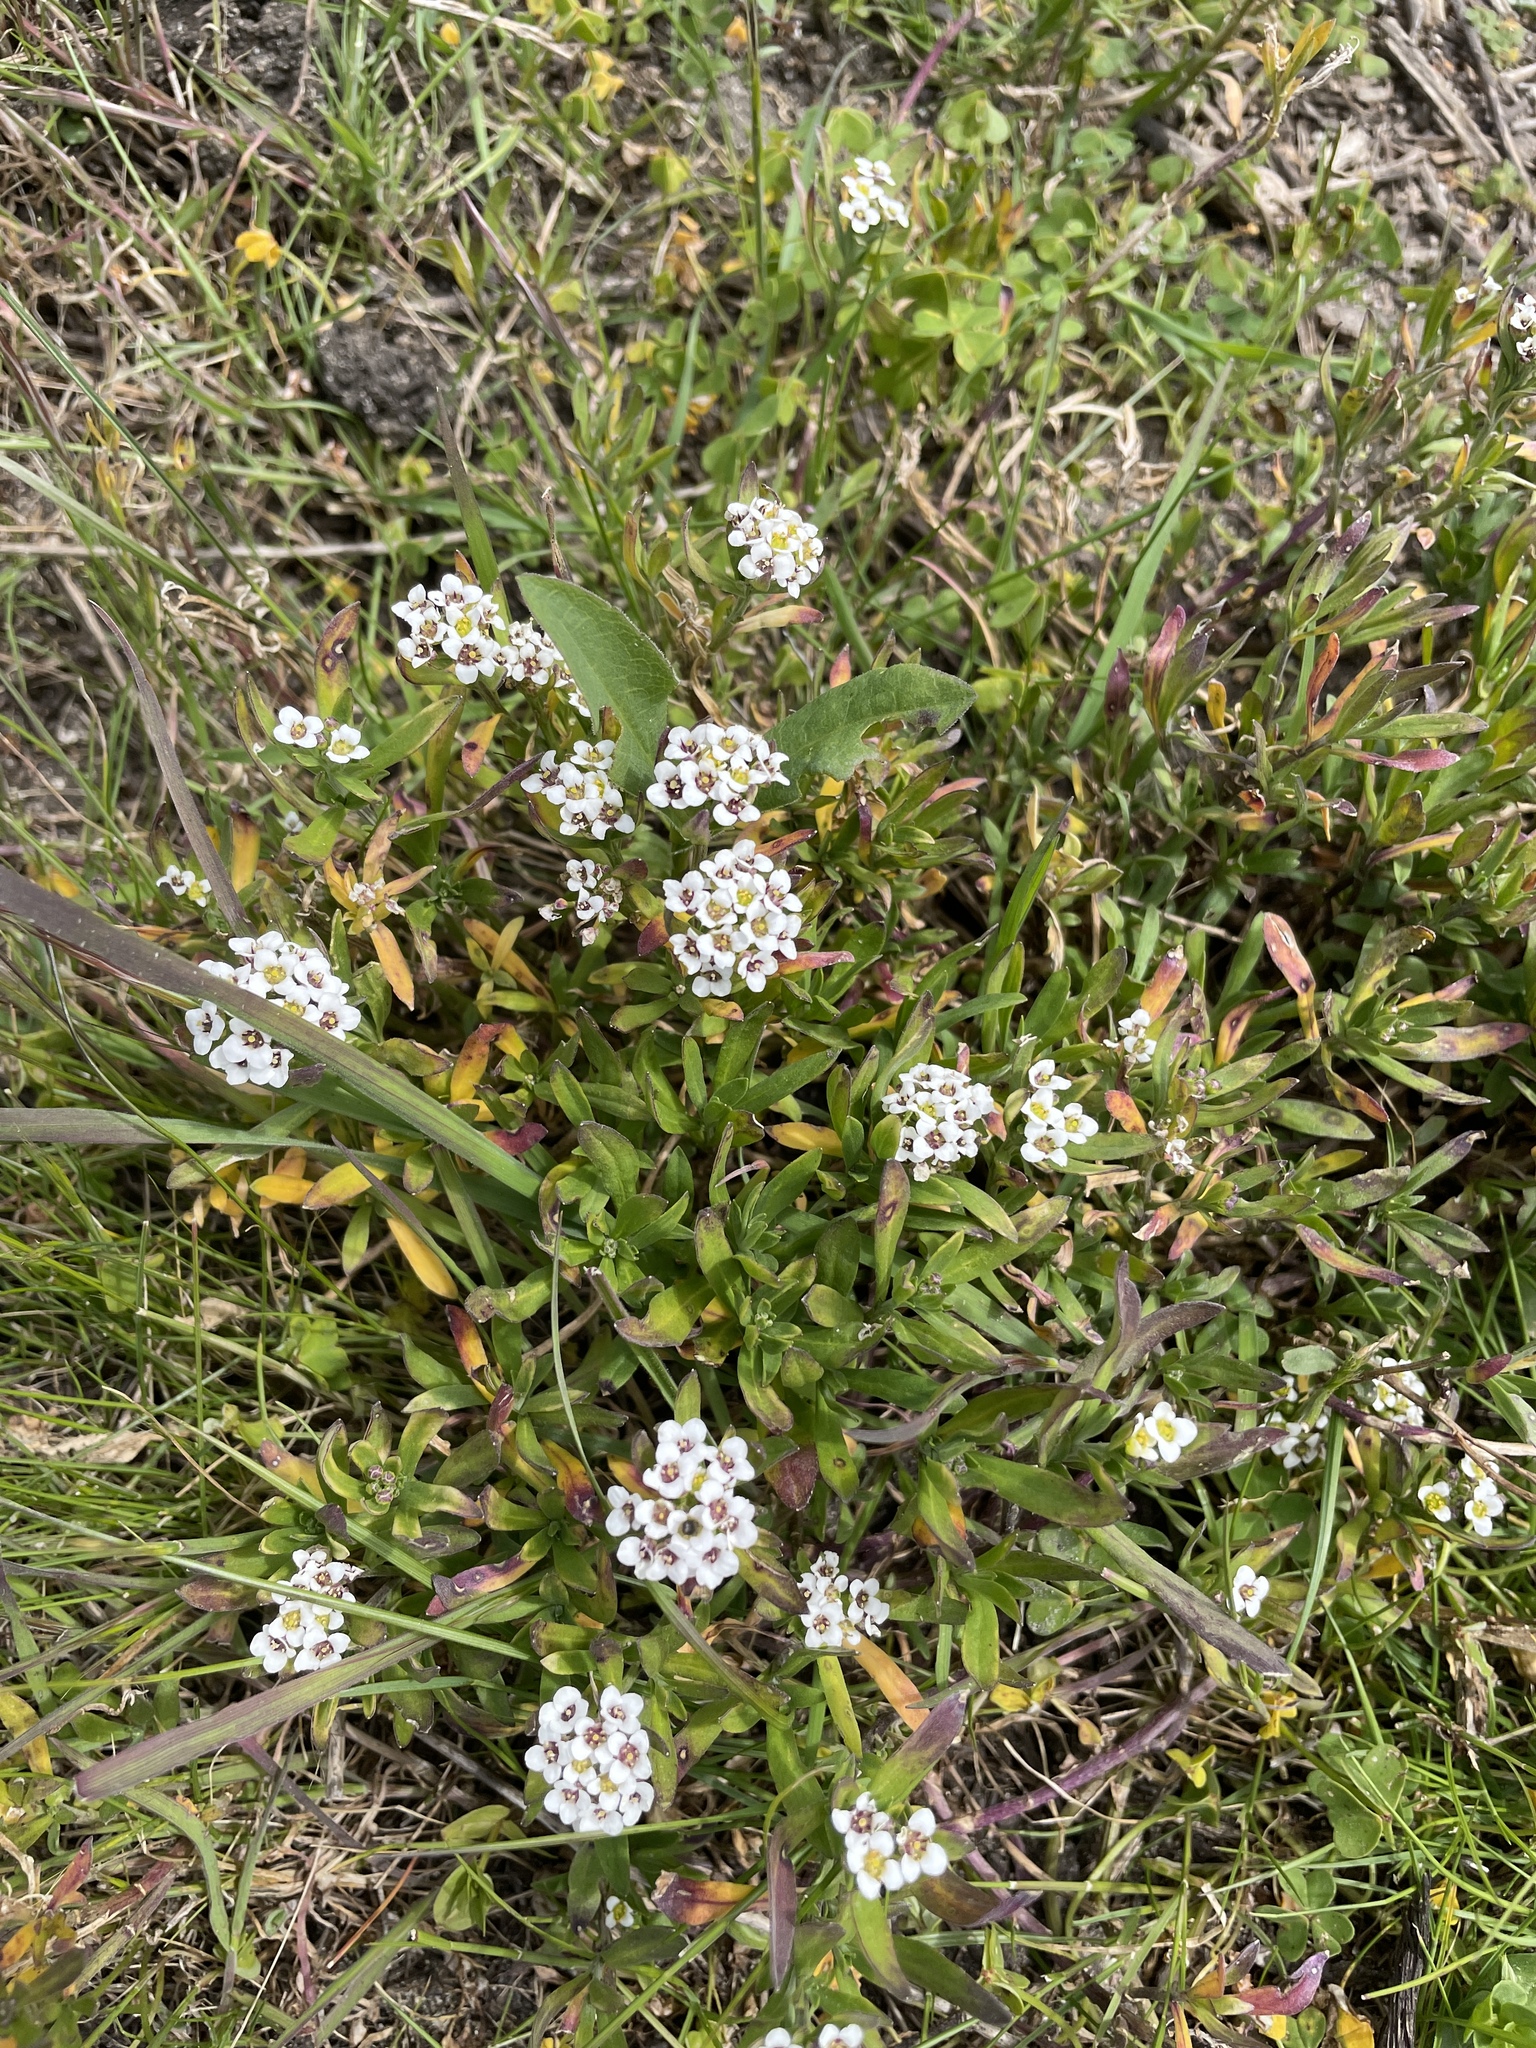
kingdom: Plantae
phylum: Tracheophyta
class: Magnoliopsida
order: Brassicales
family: Brassicaceae
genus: Lobularia
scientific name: Lobularia maritima
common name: Sweet alison
